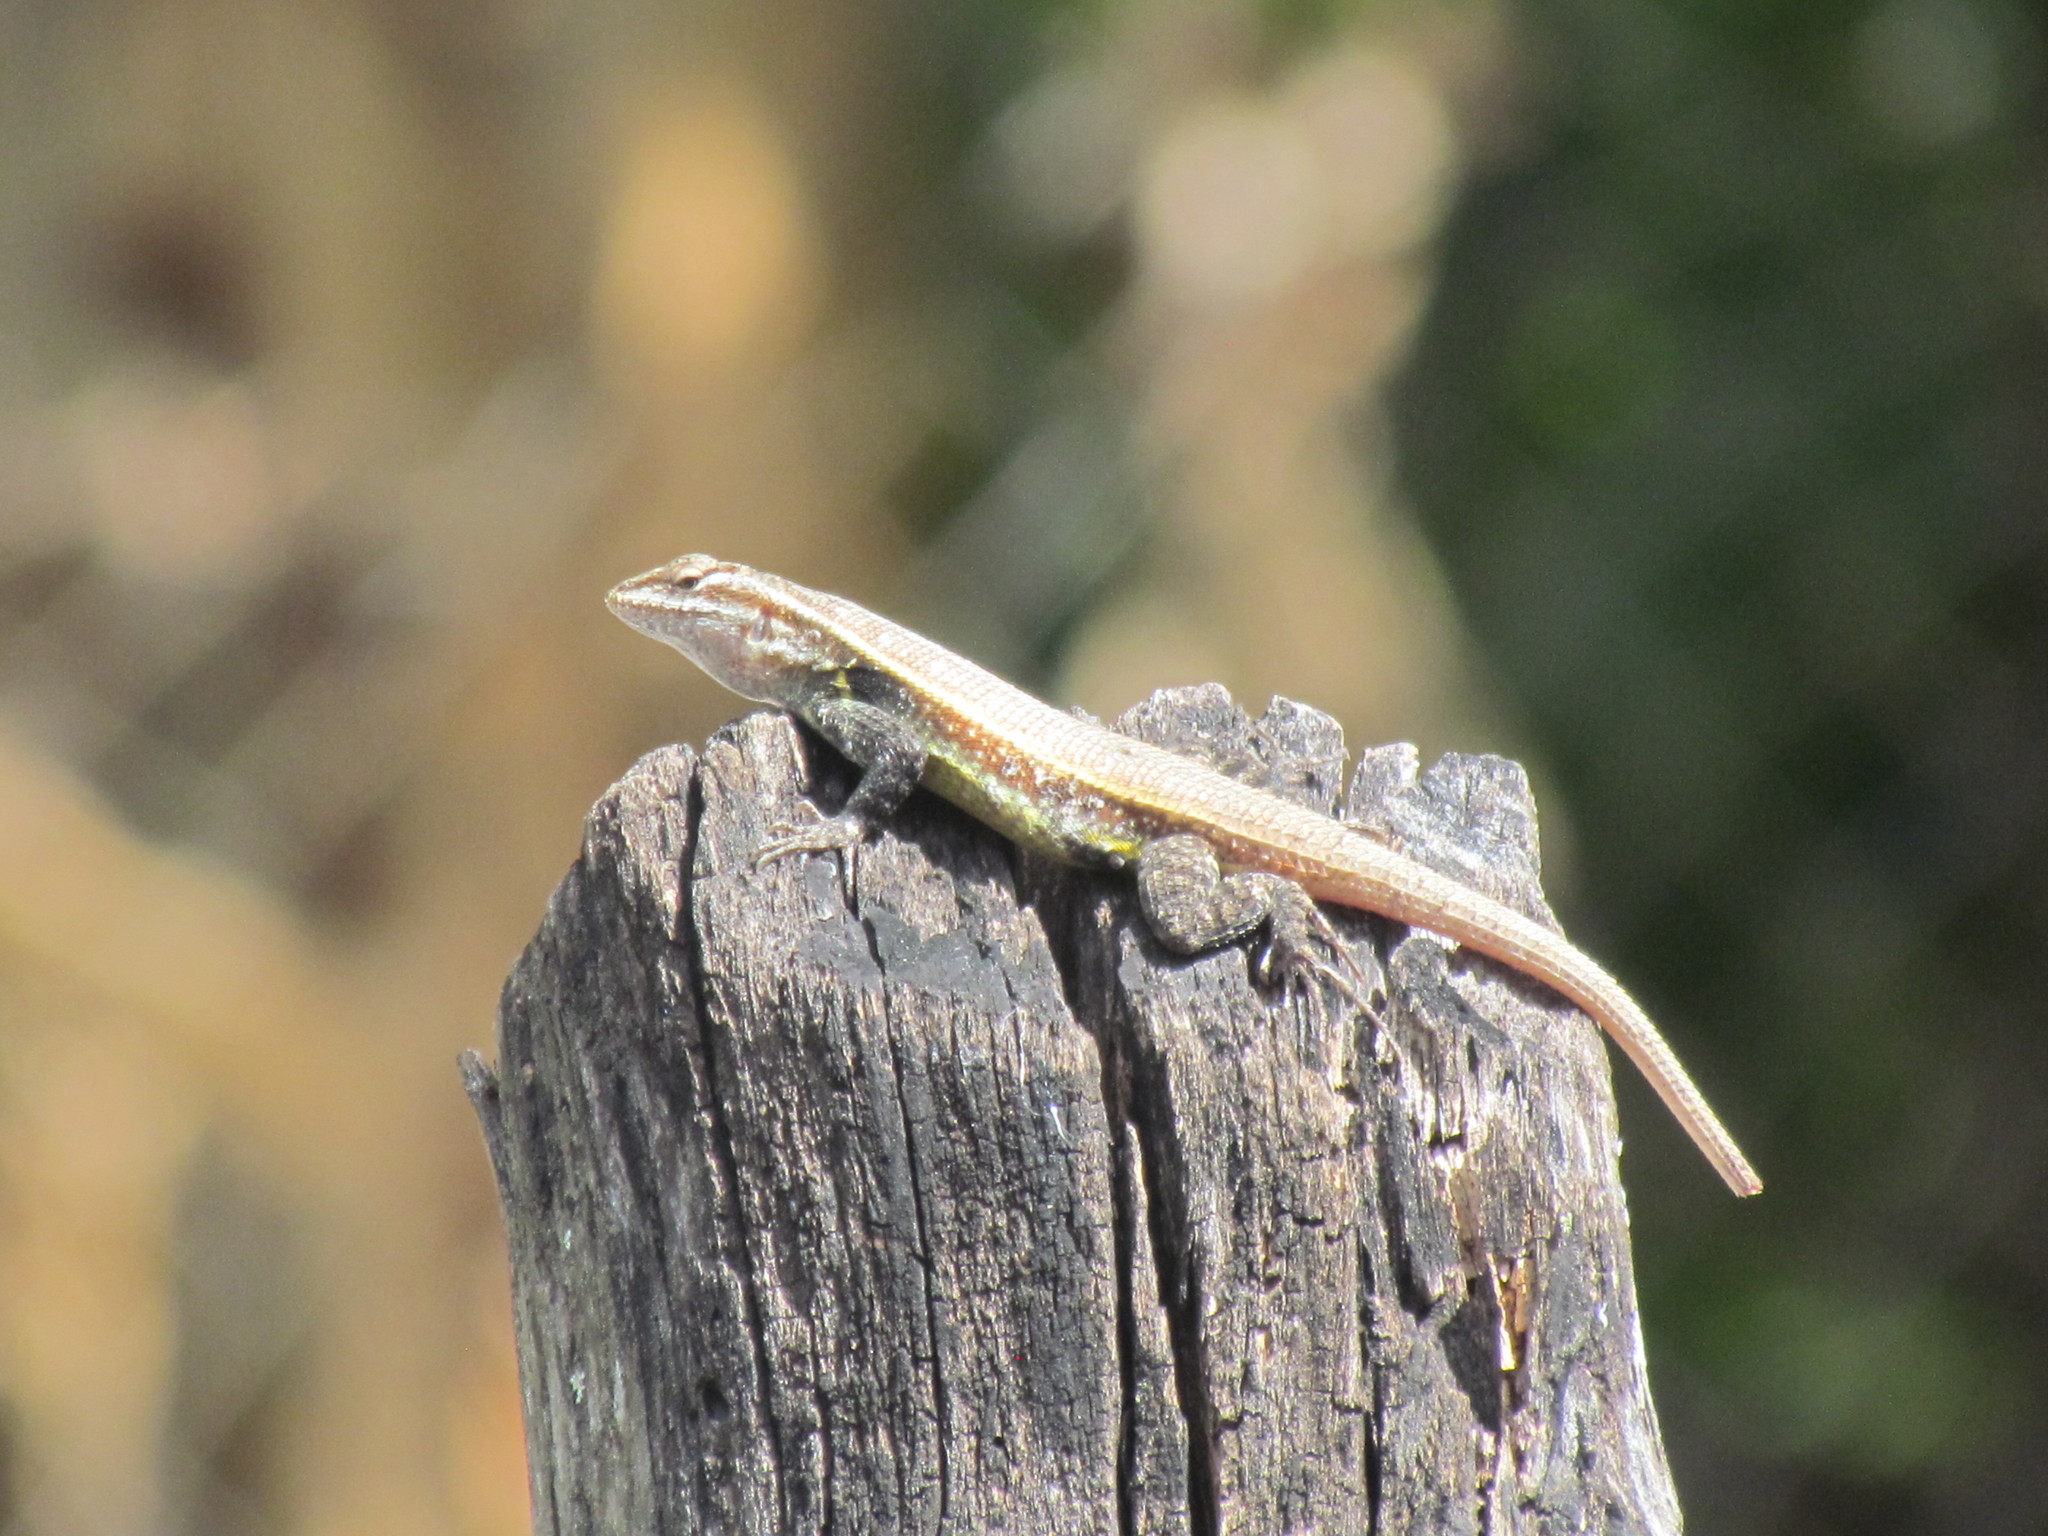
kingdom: Animalia
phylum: Chordata
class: Squamata
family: Phrynosomatidae
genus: Sceloporus
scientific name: Sceloporus variabilis
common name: Rosebelly lizard
